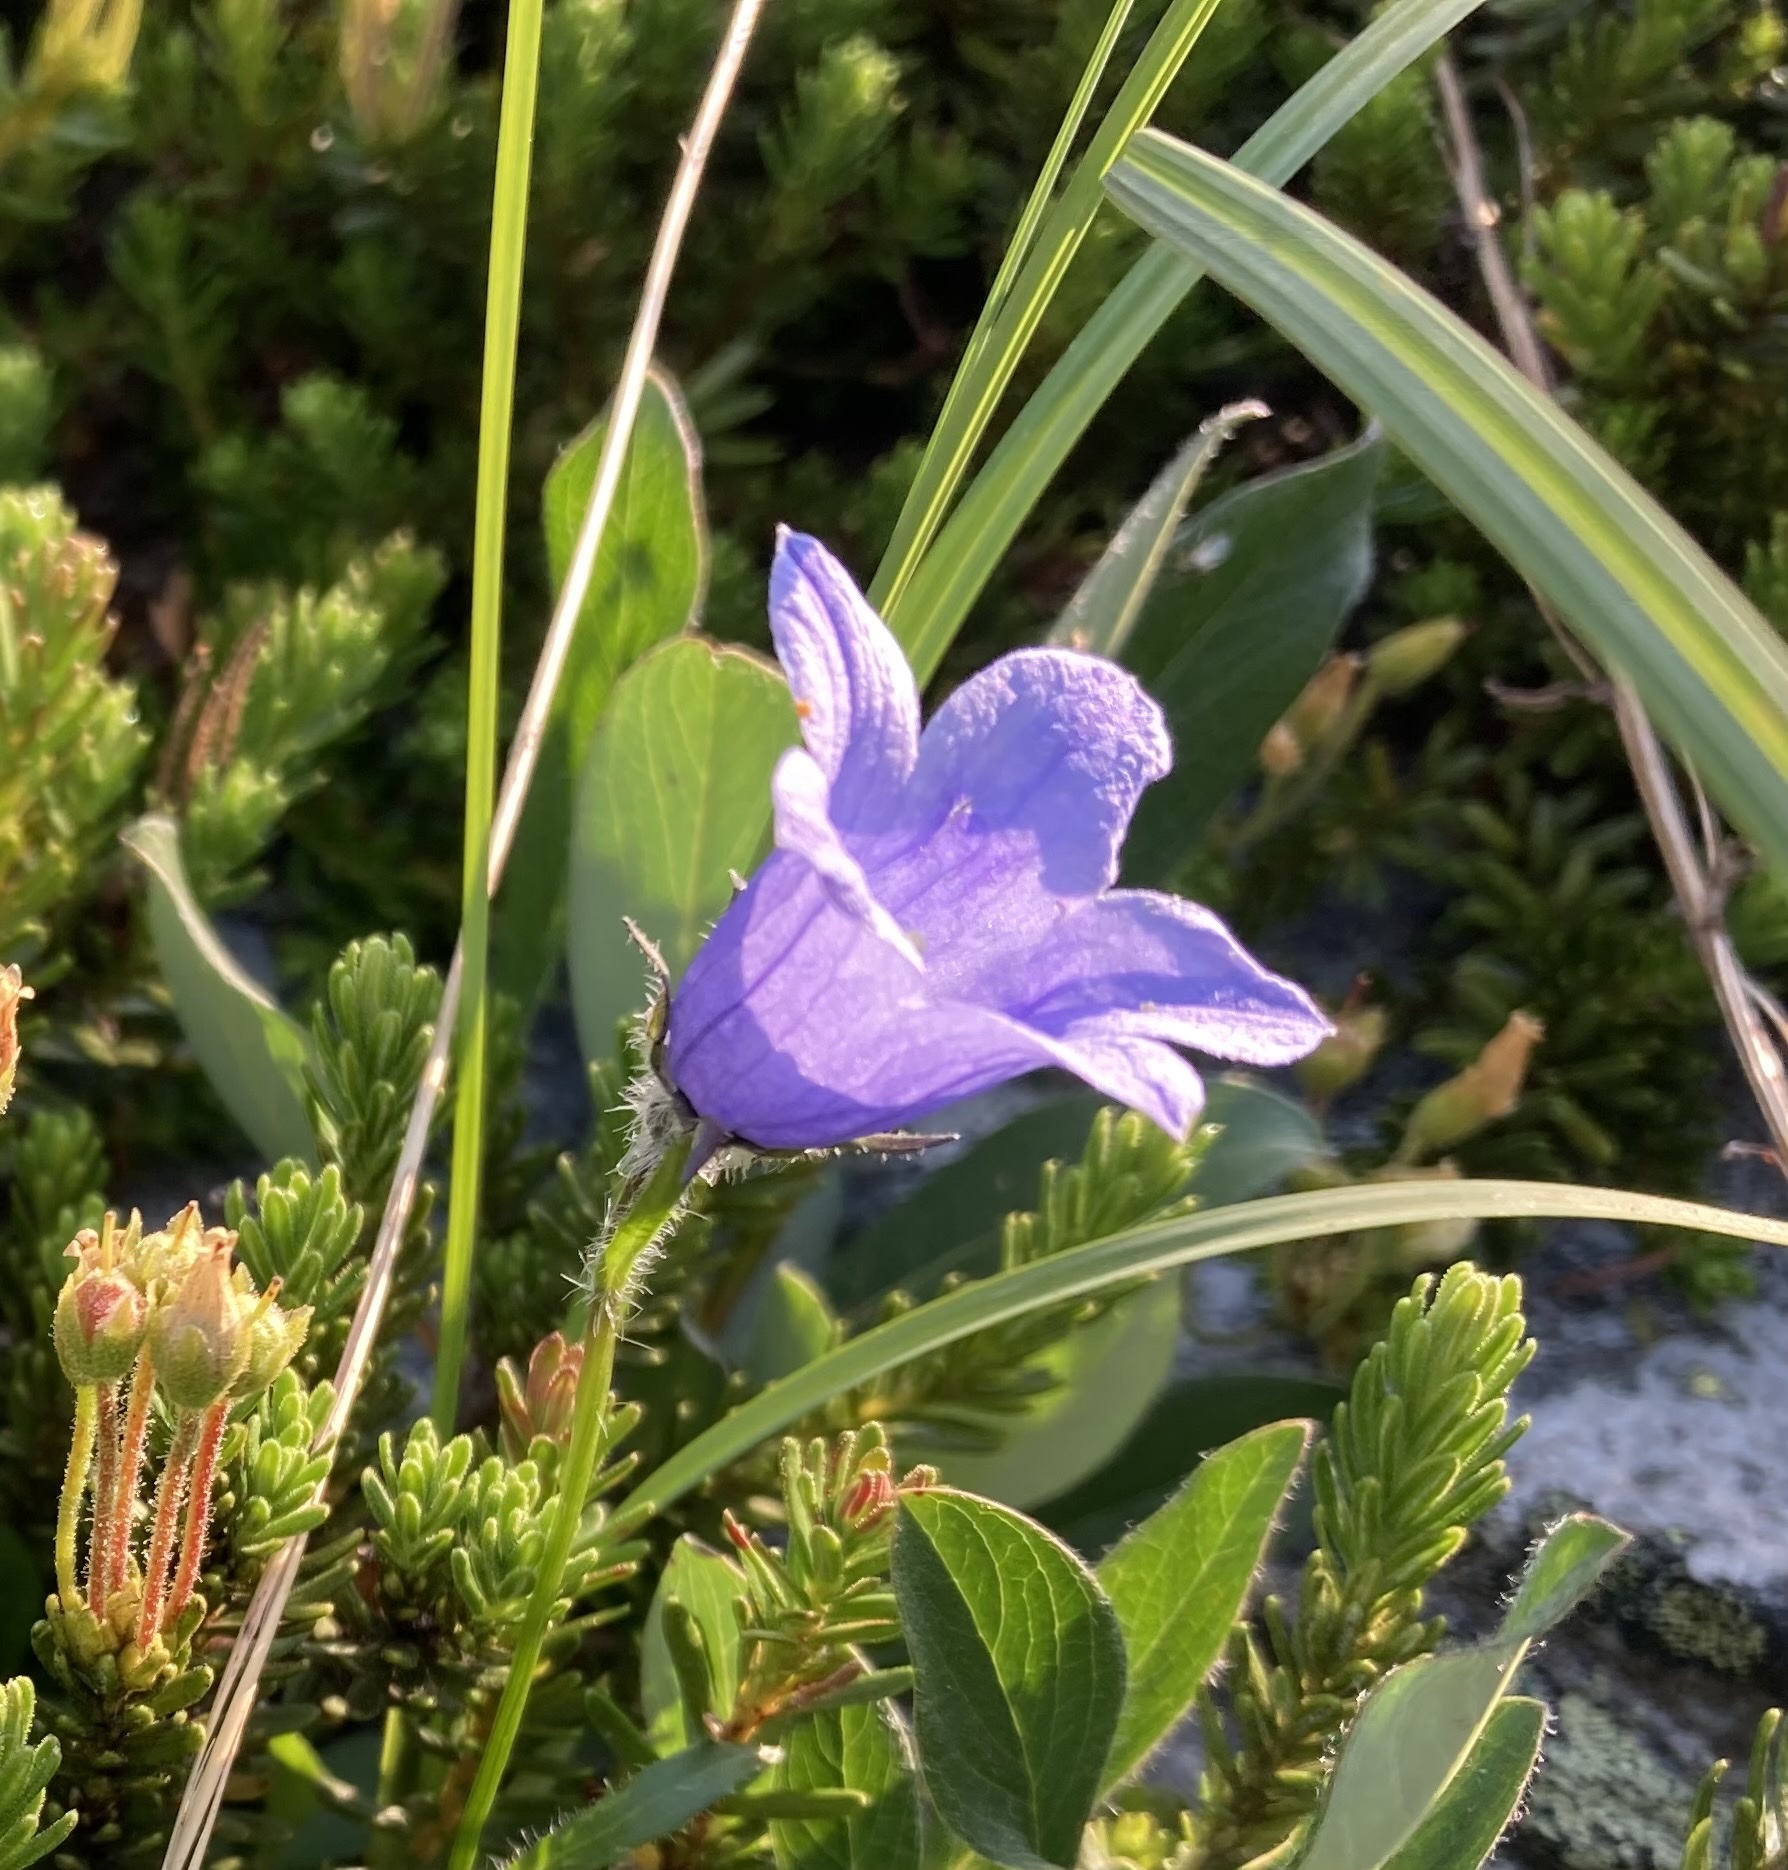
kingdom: Plantae
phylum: Tracheophyta
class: Magnoliopsida
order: Asterales
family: Campanulaceae
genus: Campanula
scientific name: Campanula lasiocarpa
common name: Mountain harebell
